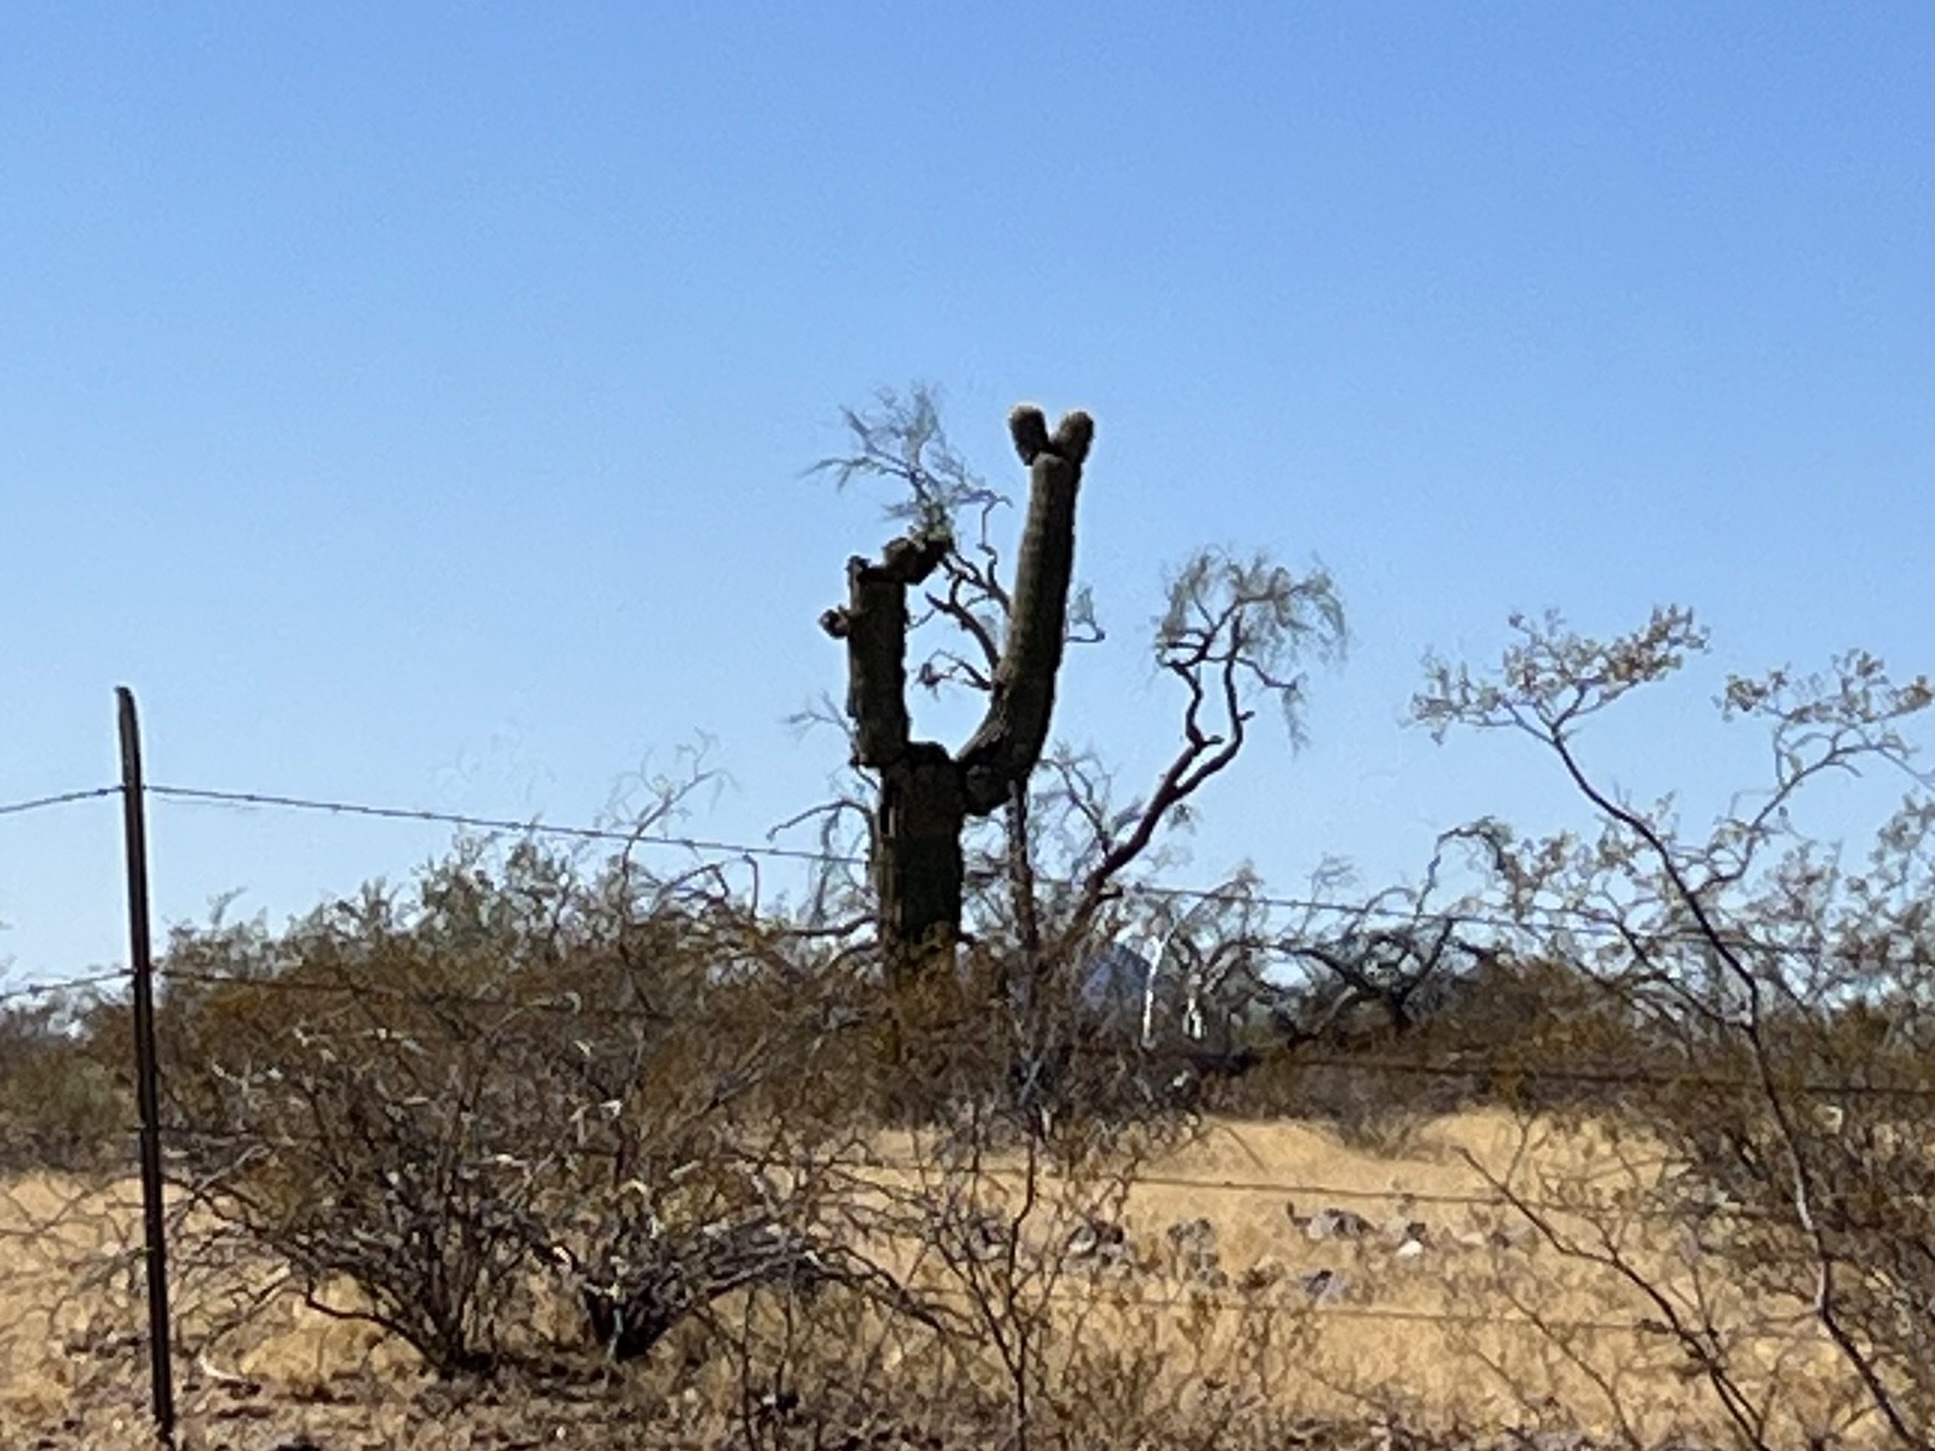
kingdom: Plantae
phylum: Tracheophyta
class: Magnoliopsida
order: Caryophyllales
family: Cactaceae
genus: Carnegiea
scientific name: Carnegiea gigantea
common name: Saguaro
